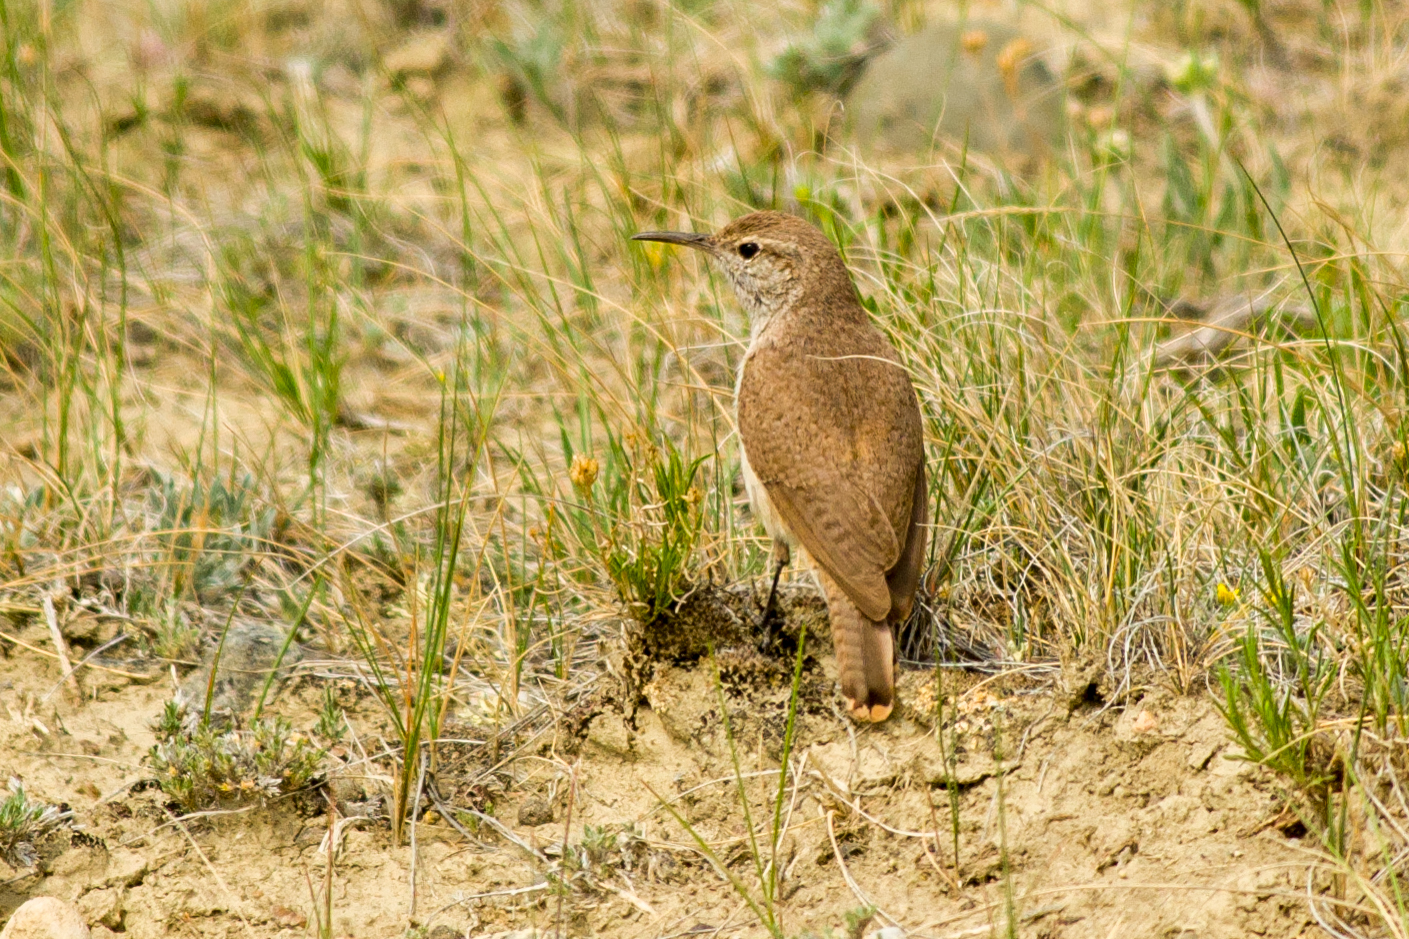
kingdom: Animalia
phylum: Chordata
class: Aves
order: Passeriformes
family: Troglodytidae
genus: Salpinctes
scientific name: Salpinctes obsoletus
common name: Rock wren
